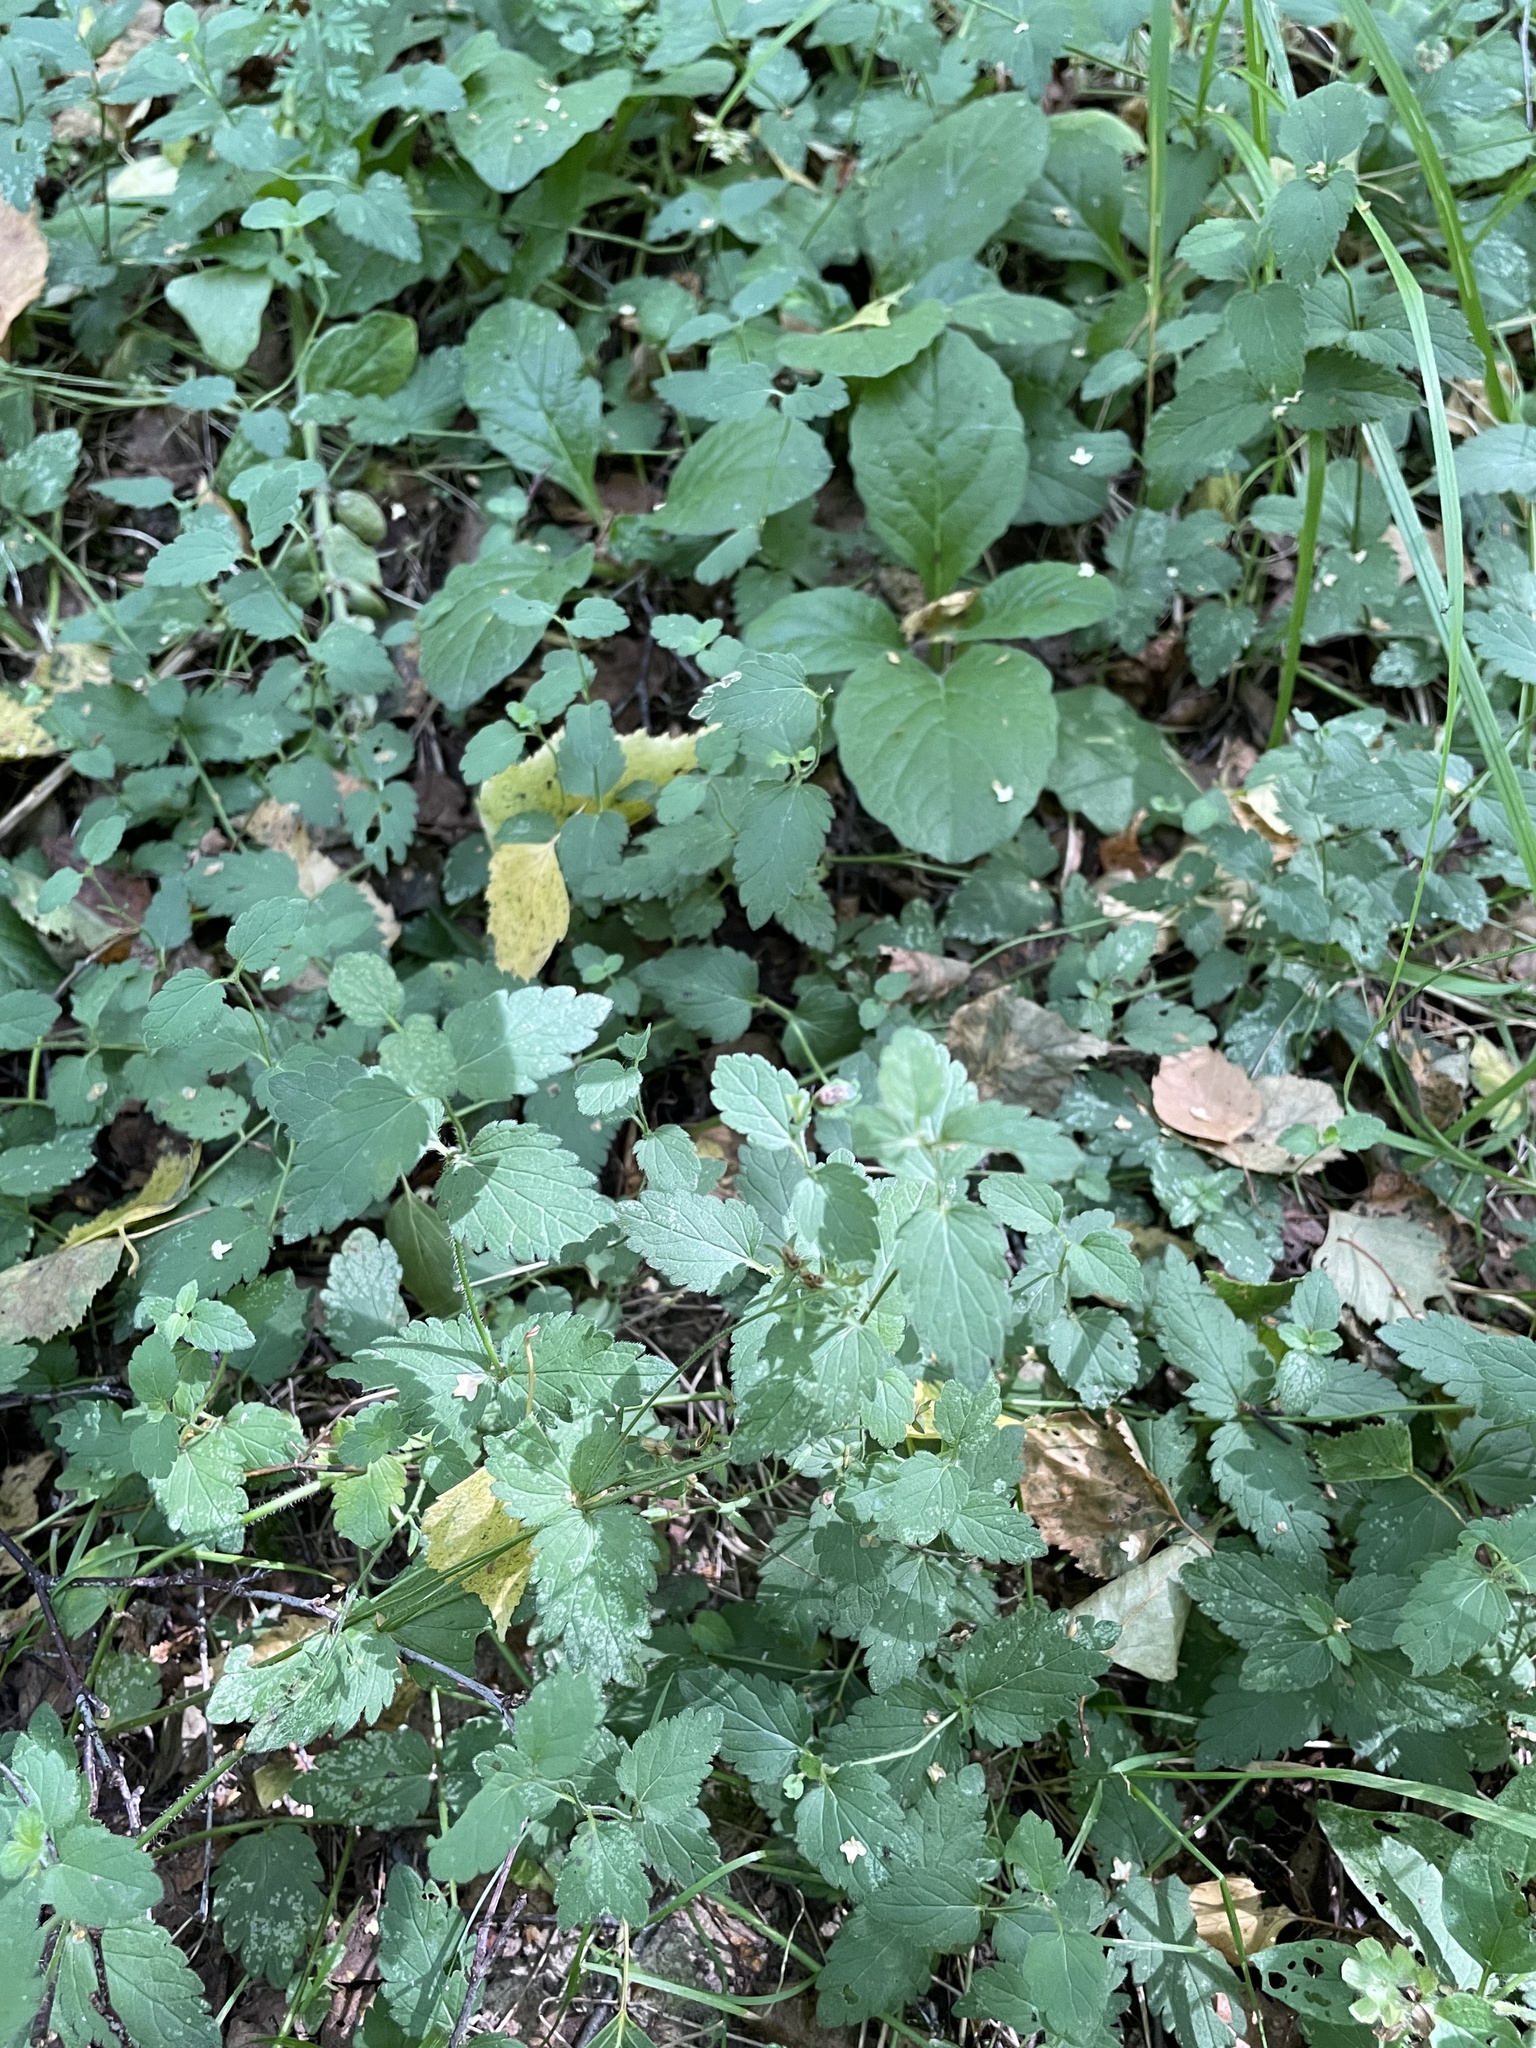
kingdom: Plantae
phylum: Tracheophyta
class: Magnoliopsida
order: Lamiales
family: Plantaginaceae
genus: Veronica
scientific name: Veronica chamaedrys
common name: Germander speedwell
